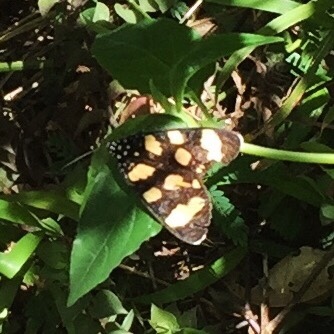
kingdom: Animalia
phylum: Arthropoda
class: Insecta
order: Lepidoptera
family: Noctuidae
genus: Heraclia
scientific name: Heraclia pardalina
